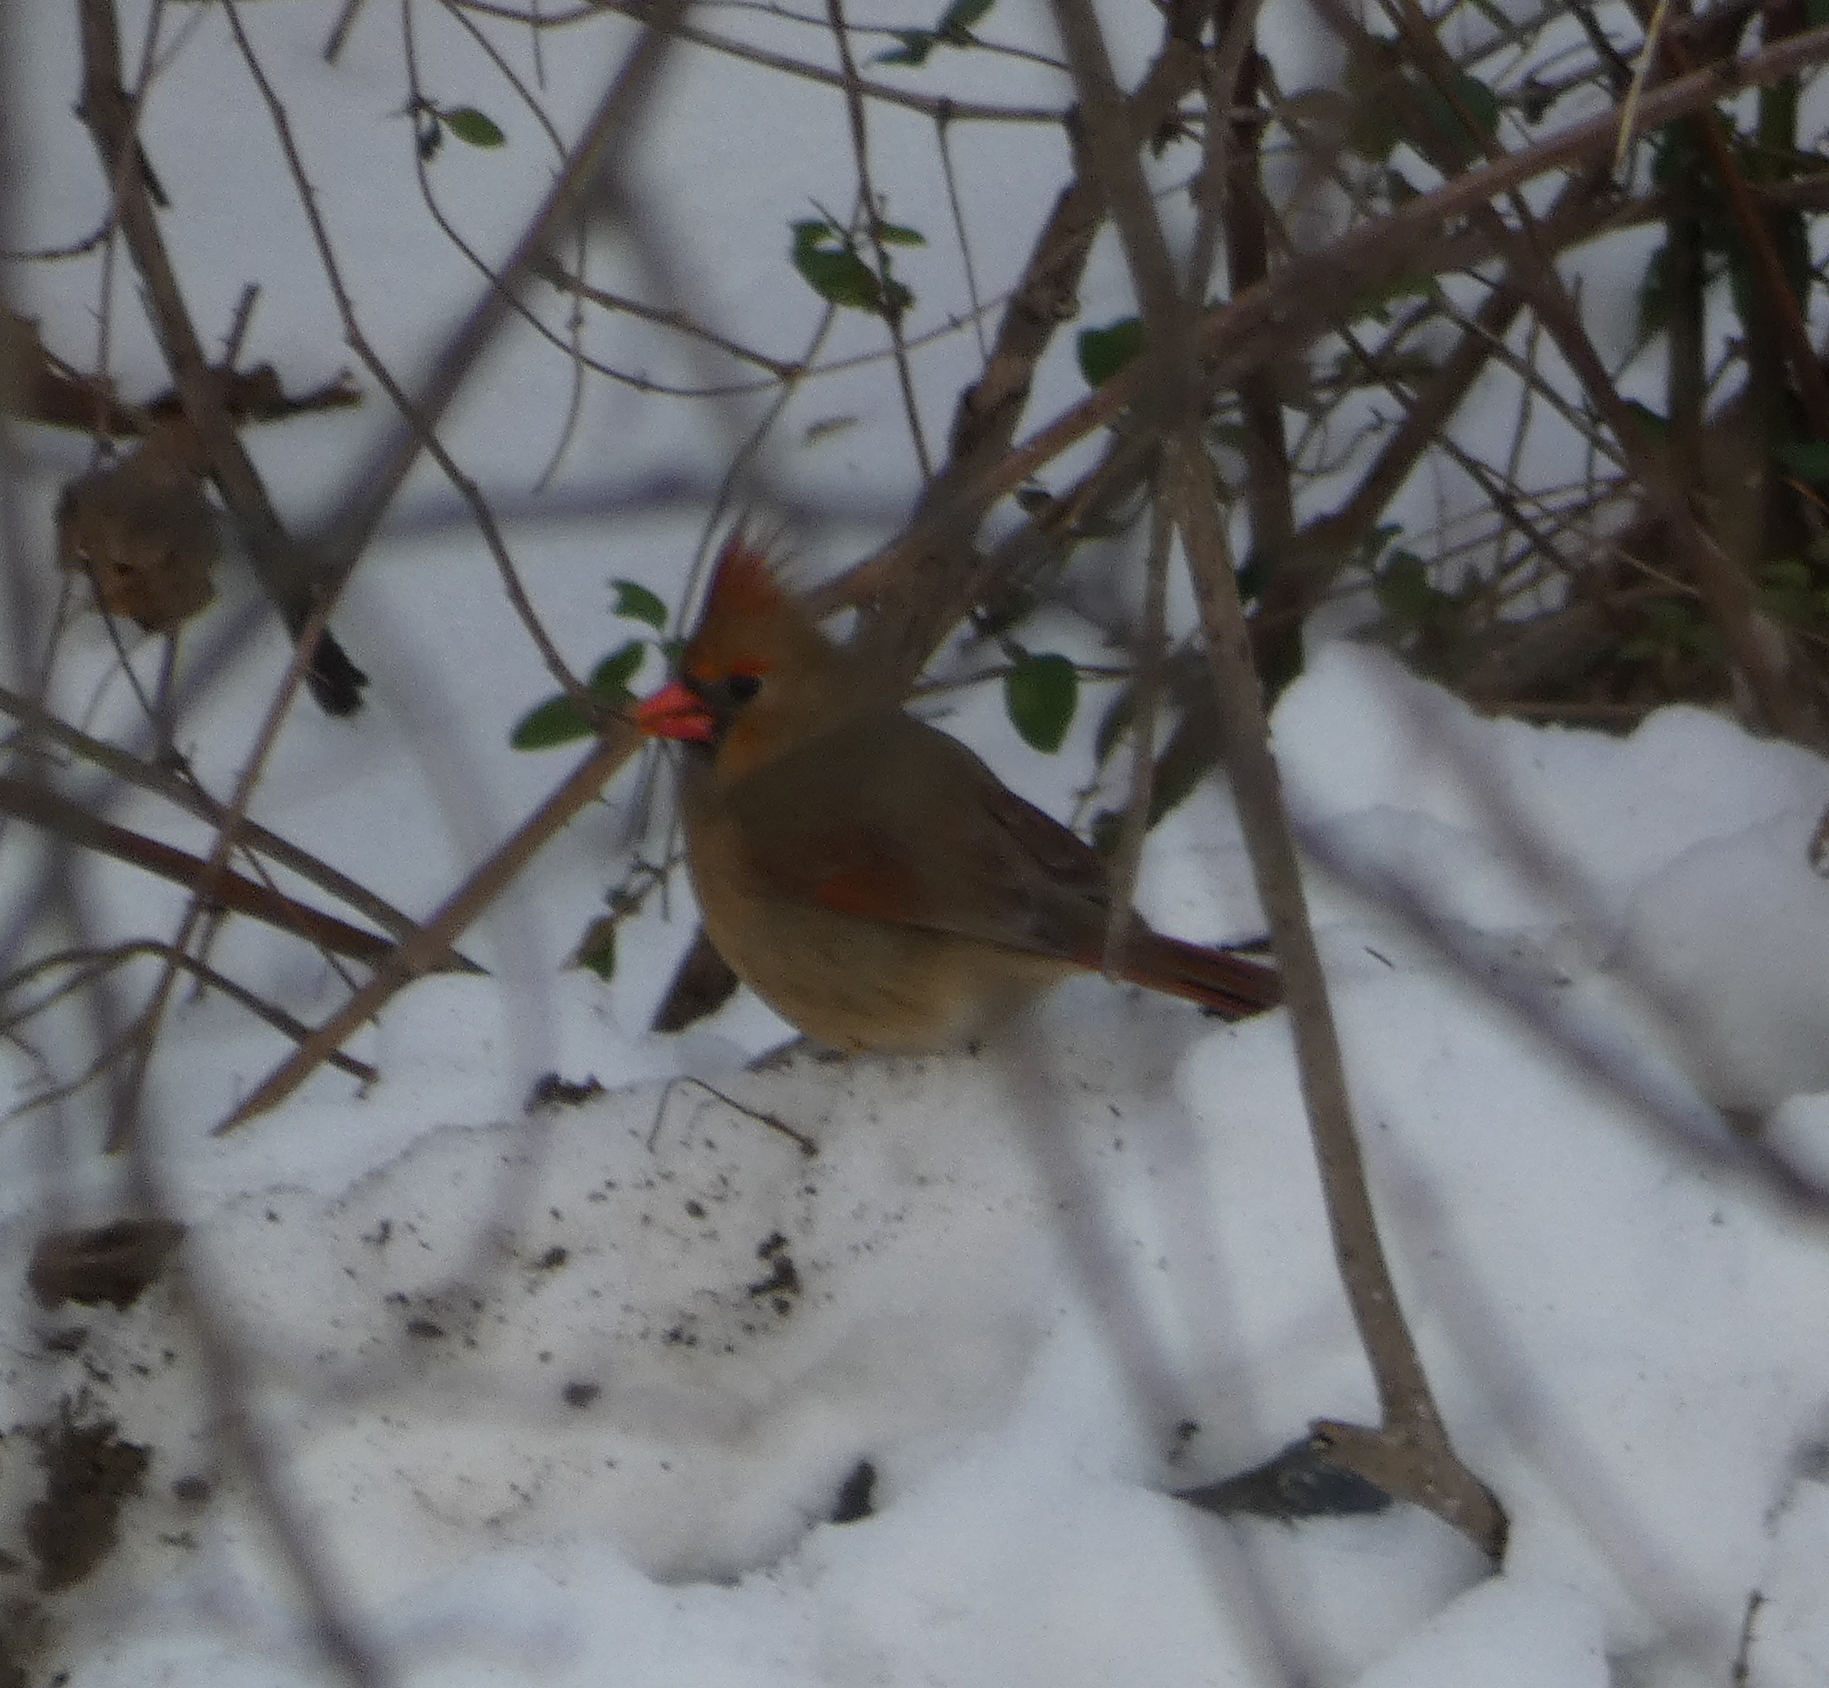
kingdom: Animalia
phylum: Chordata
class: Aves
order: Passeriformes
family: Cardinalidae
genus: Cardinalis
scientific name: Cardinalis cardinalis
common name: Northern cardinal
